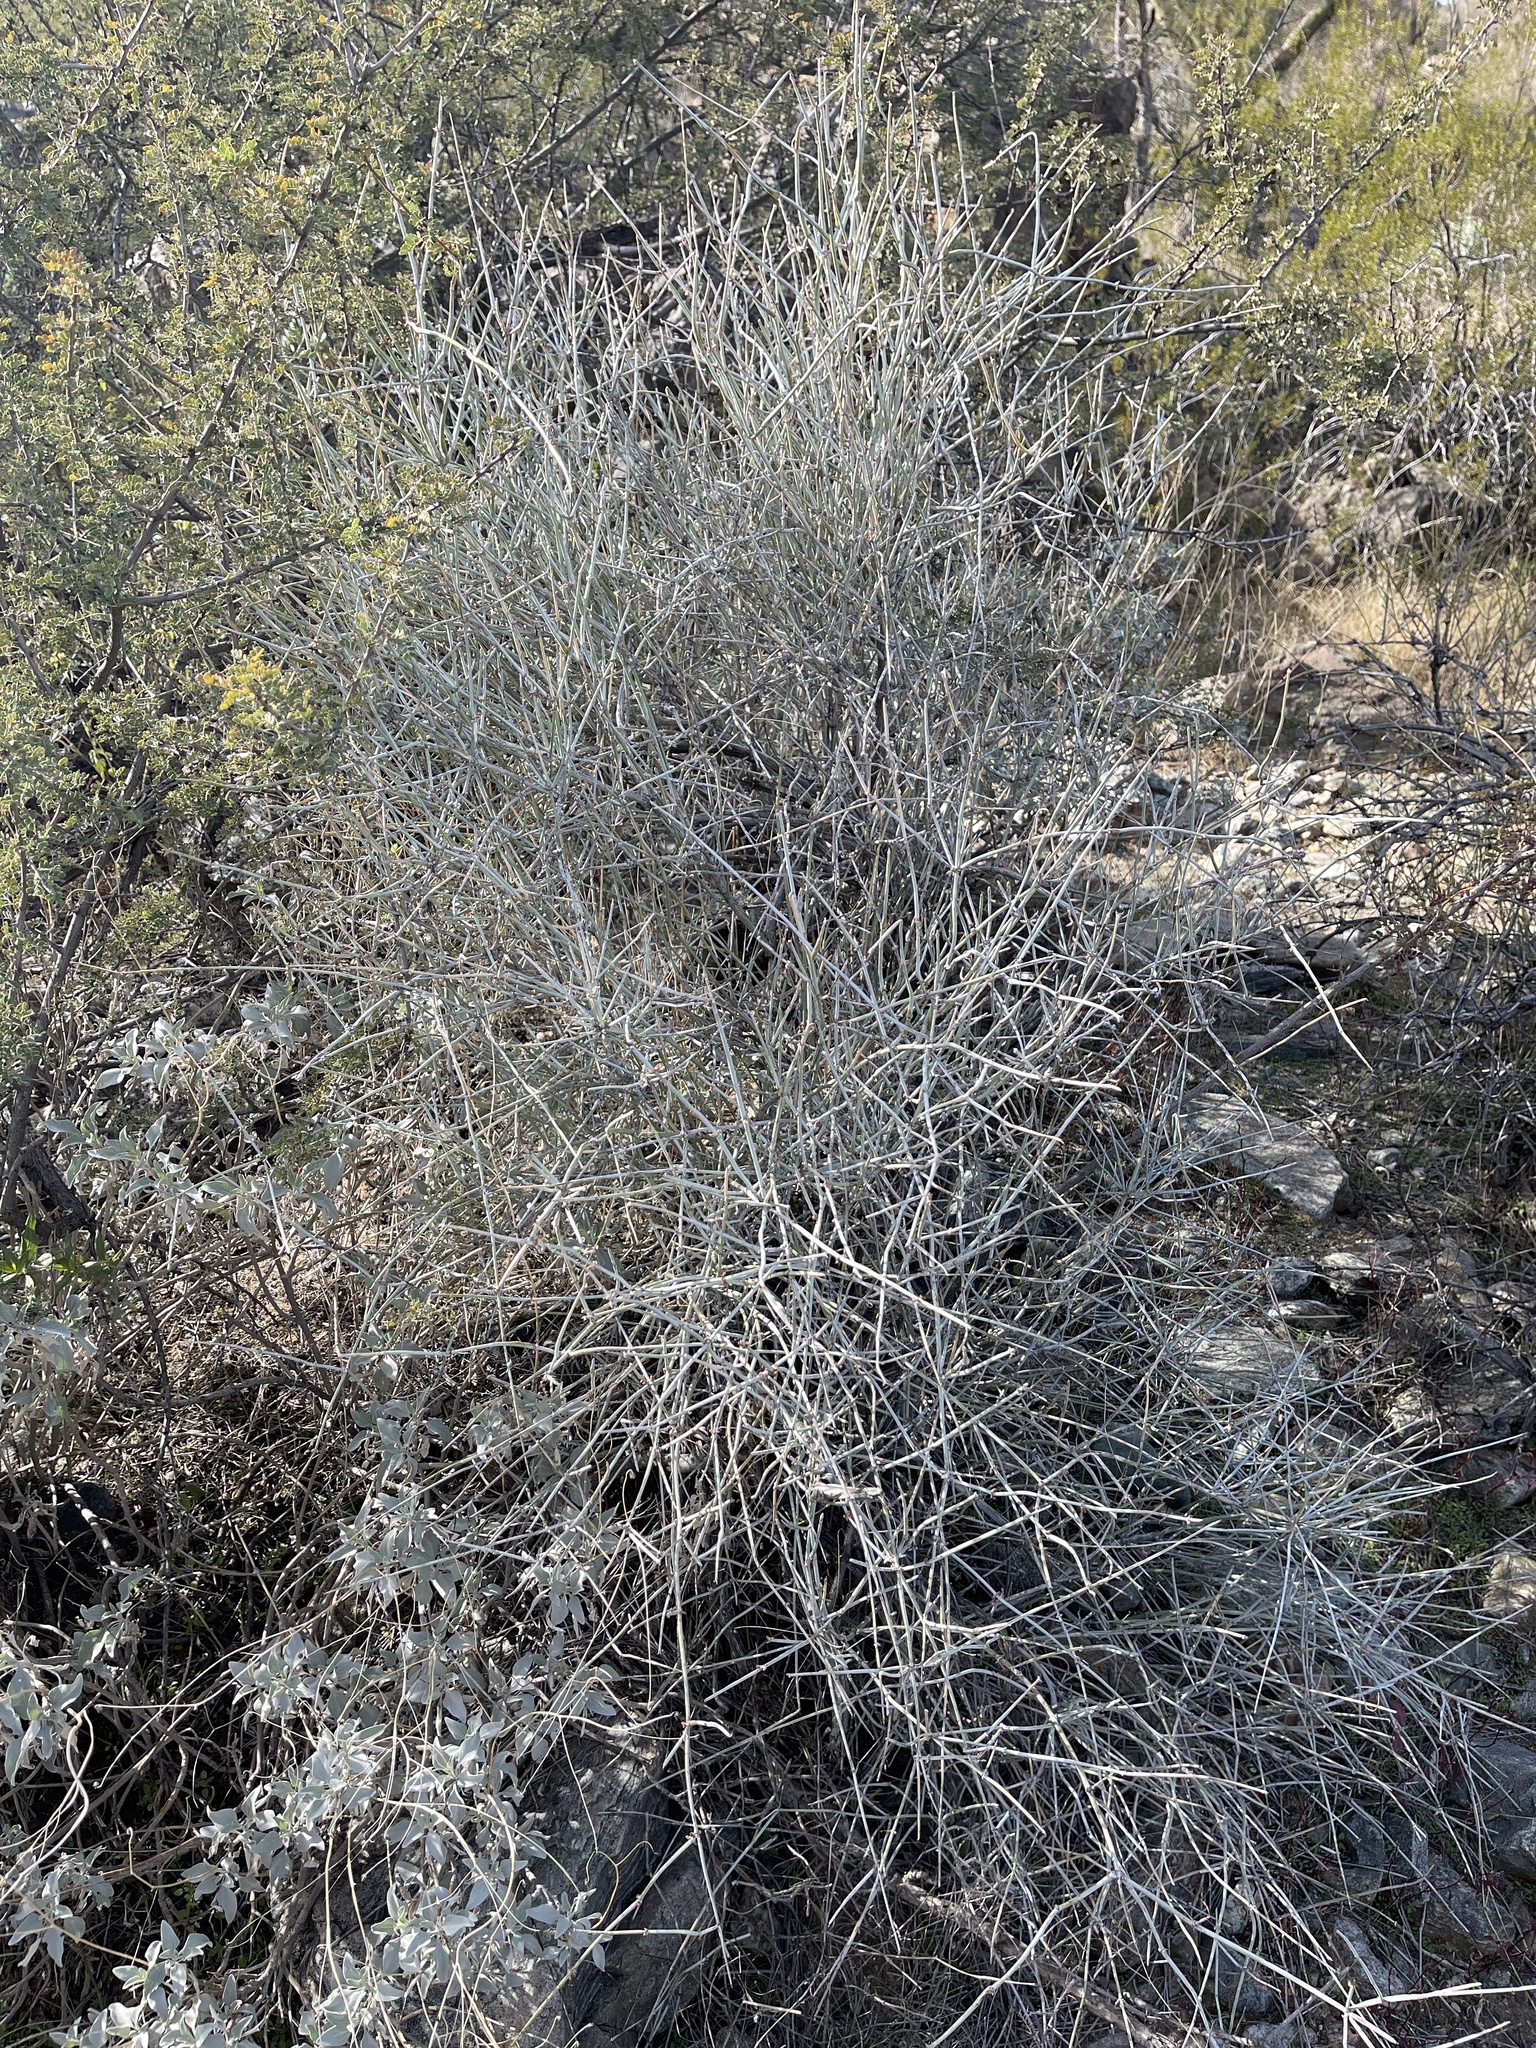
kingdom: Plantae
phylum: Tracheophyta
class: Gnetopsida
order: Ephedrales
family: Ephedraceae
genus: Ephedra
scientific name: Ephedra aspera
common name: Boundary ephedra
